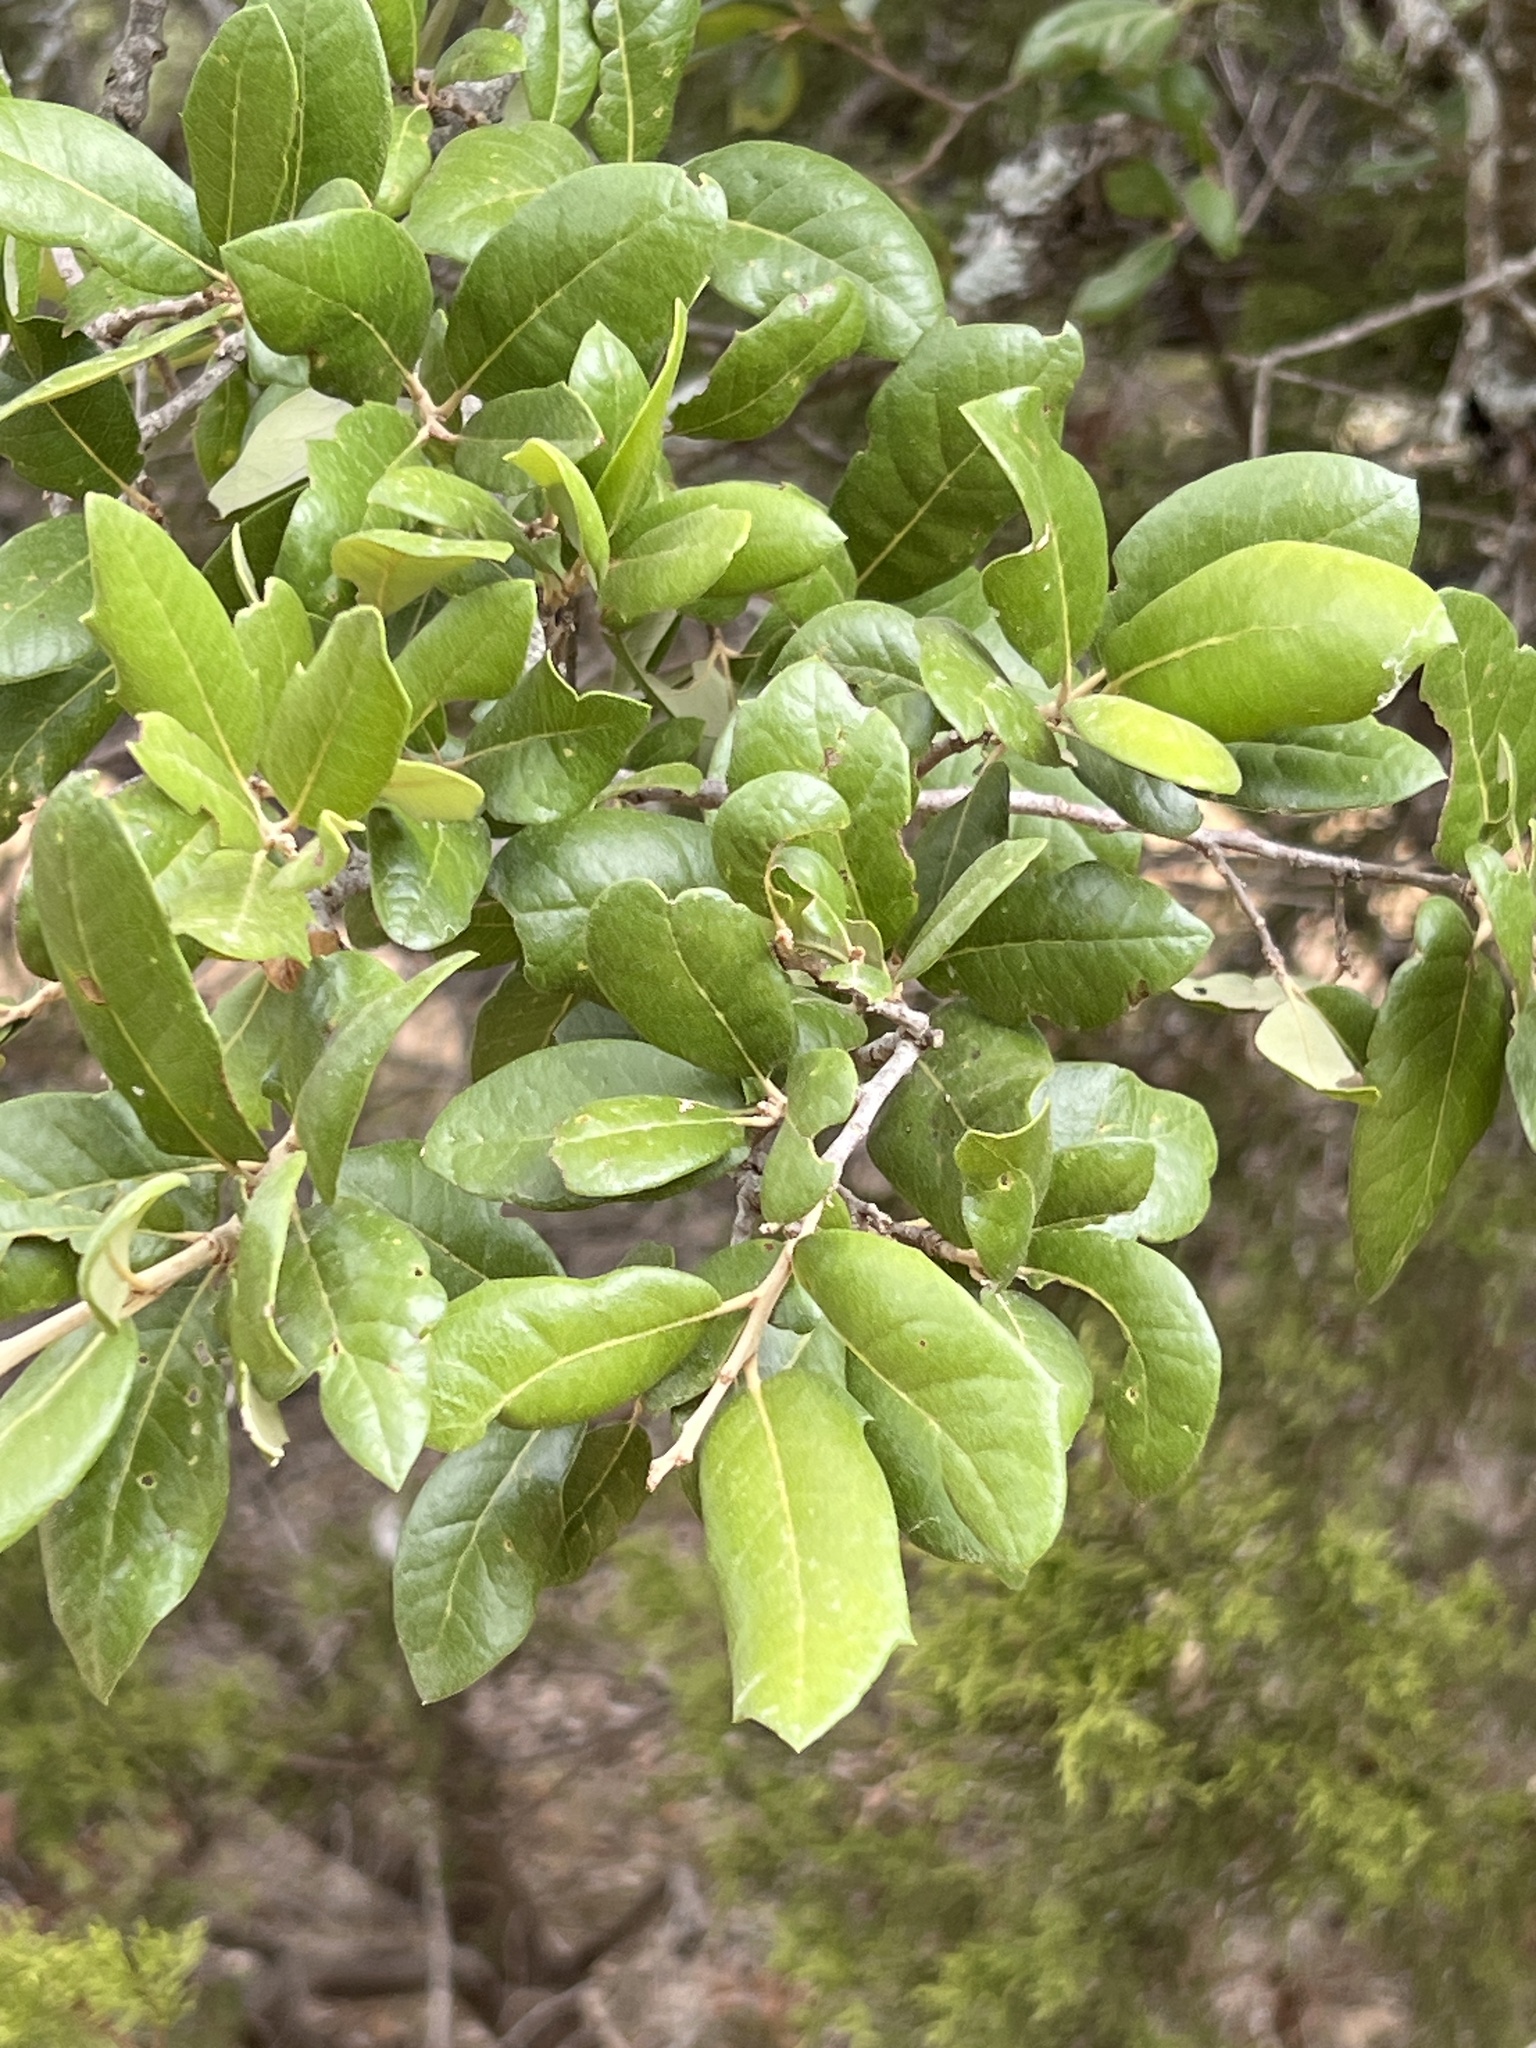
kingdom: Plantae
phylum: Tracheophyta
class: Magnoliopsida
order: Fagales
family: Fagaceae
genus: Quercus
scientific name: Quercus fusiformis
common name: Texas live oak
